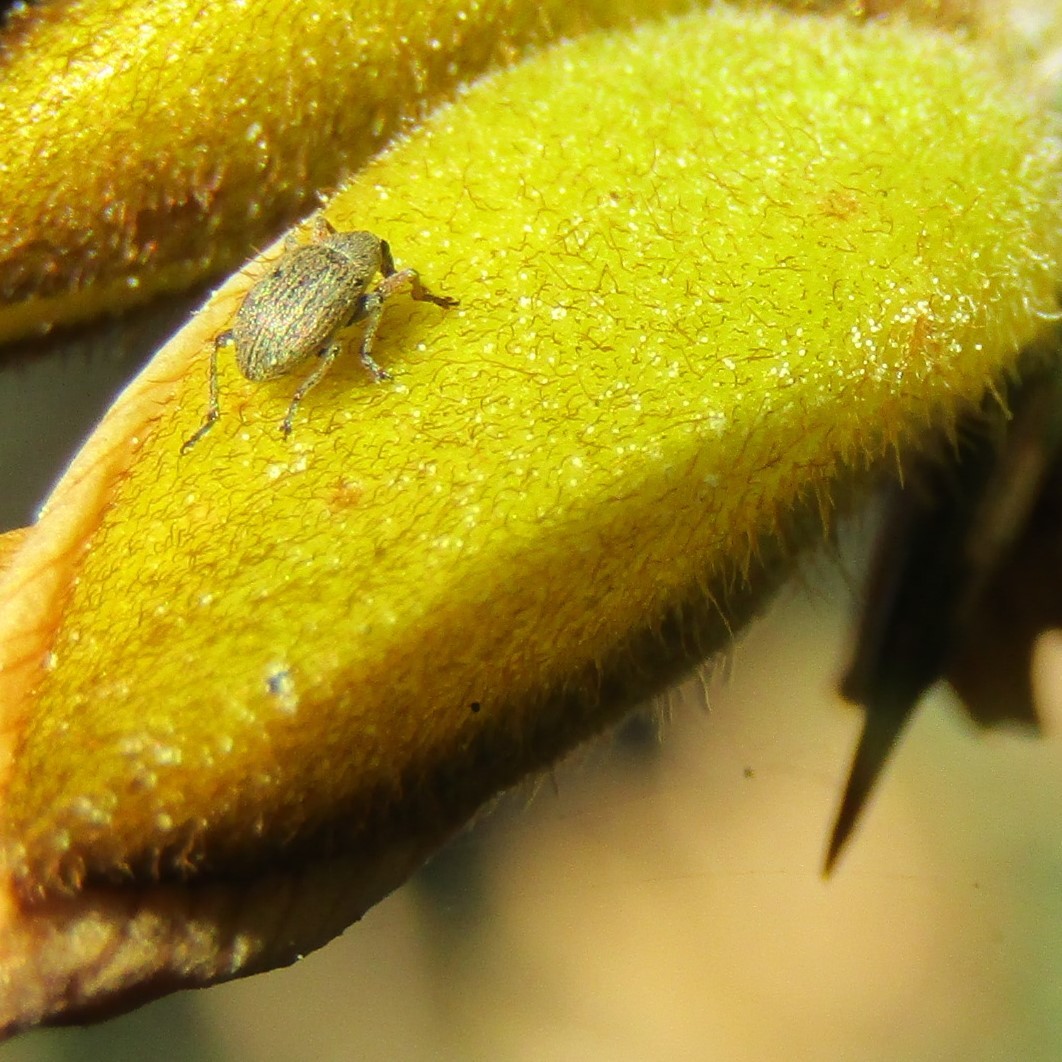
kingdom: Animalia
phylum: Arthropoda
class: Insecta
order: Coleoptera
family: Brentidae
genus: Exapion
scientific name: Exapion ulicis
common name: Gorse seed weevil
